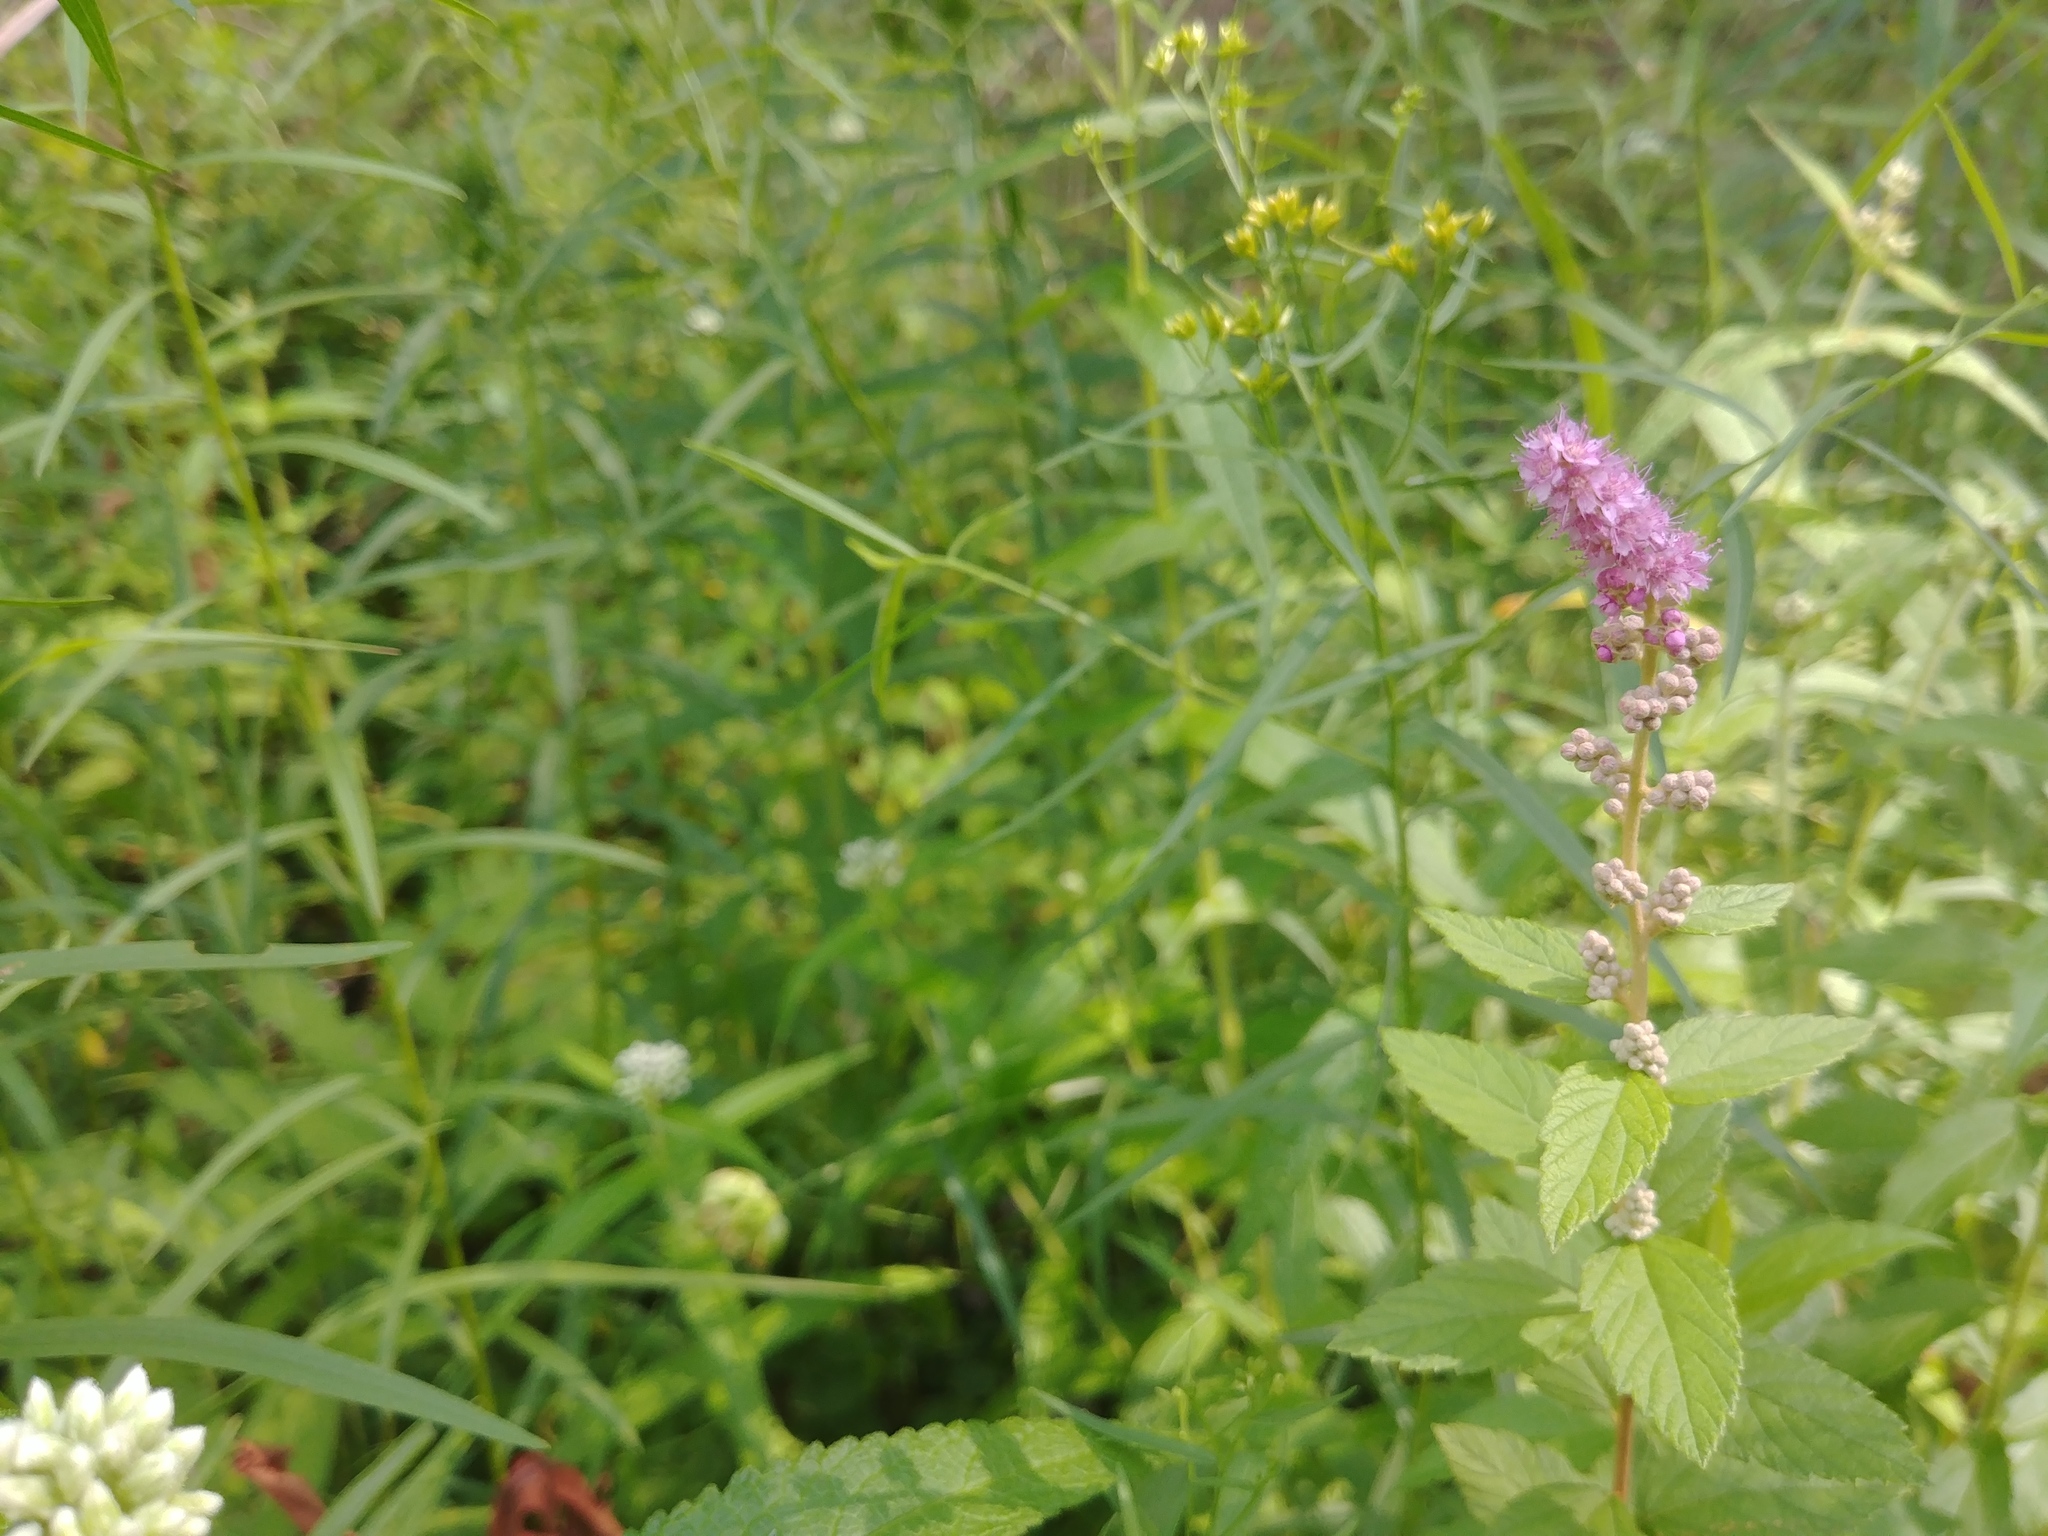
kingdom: Plantae
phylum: Tracheophyta
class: Magnoliopsida
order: Rosales
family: Rosaceae
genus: Spiraea
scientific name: Spiraea tomentosa
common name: Hardhack
